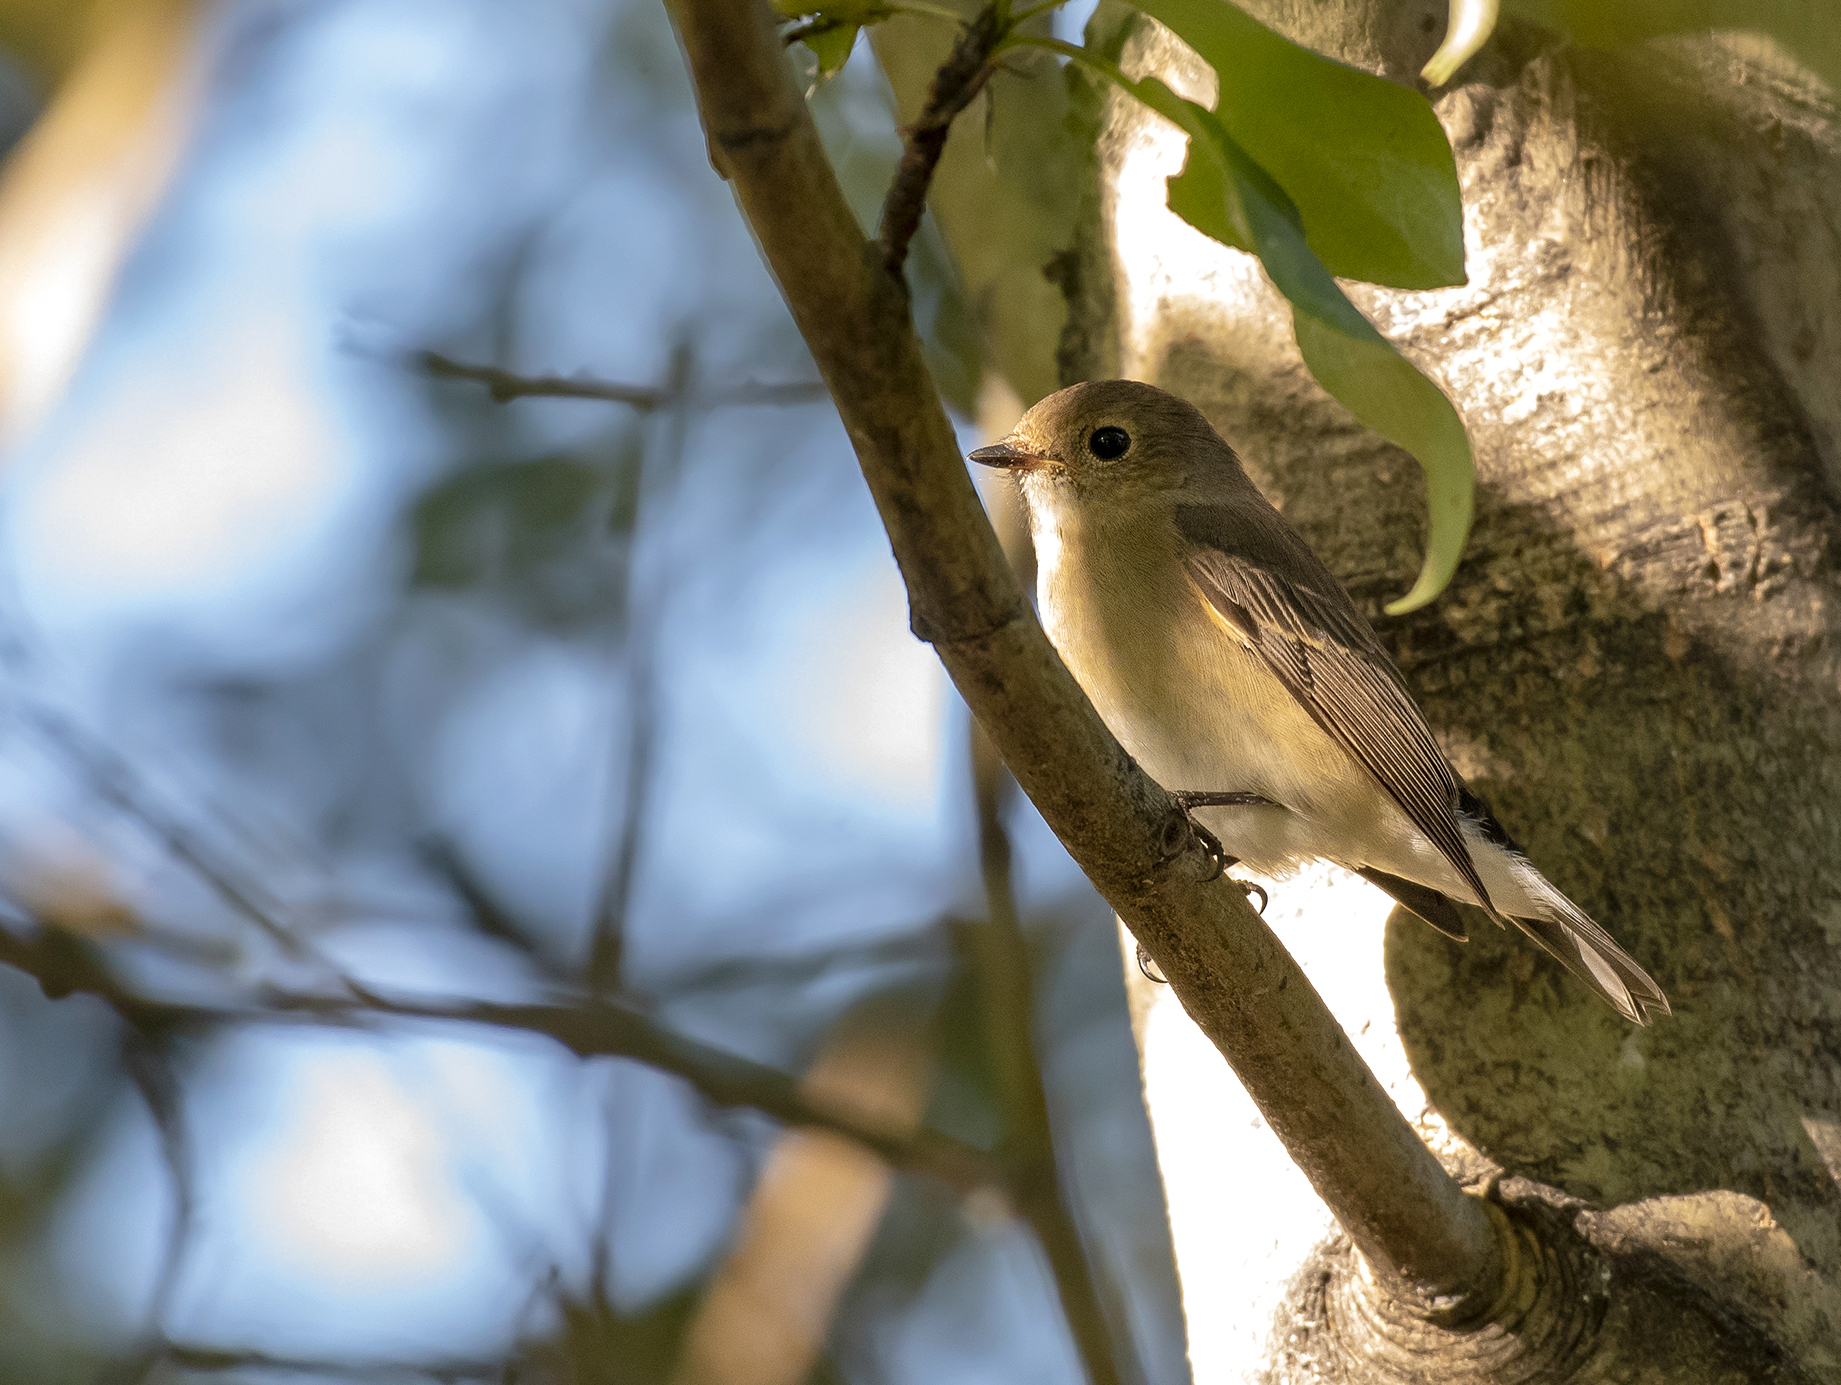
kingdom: Animalia
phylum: Chordata
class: Aves
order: Passeriformes
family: Muscicapidae
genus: Ficedula
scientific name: Ficedula albicilla
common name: Taiga flycatcher
